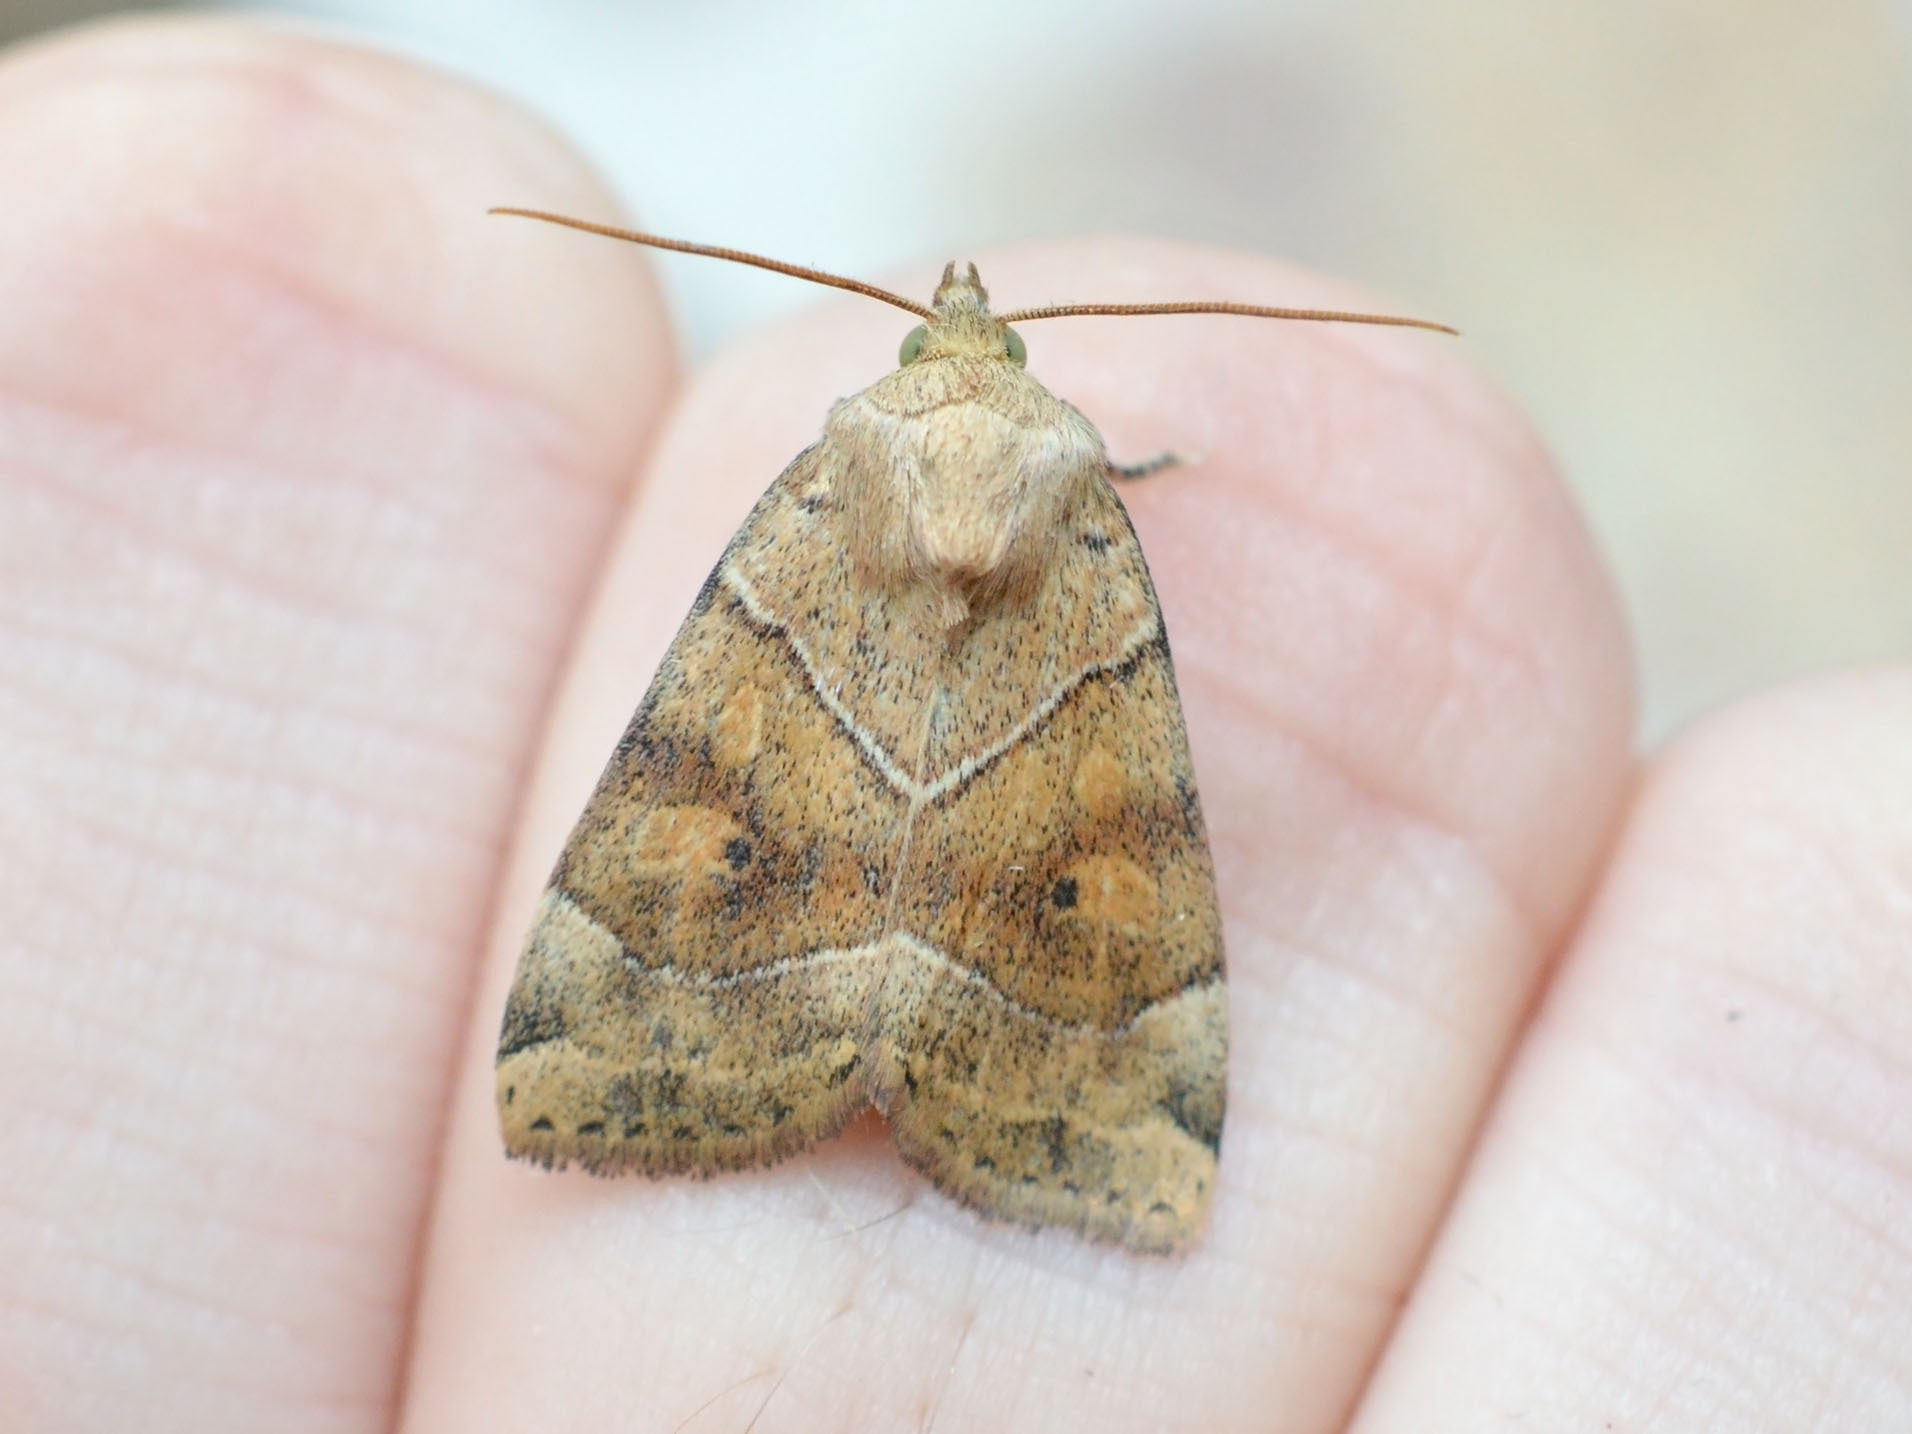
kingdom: Animalia
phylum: Arthropoda
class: Insecta
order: Lepidoptera
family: Noctuidae
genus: Cosmia
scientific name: Cosmia trapezina
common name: Dun-bar
